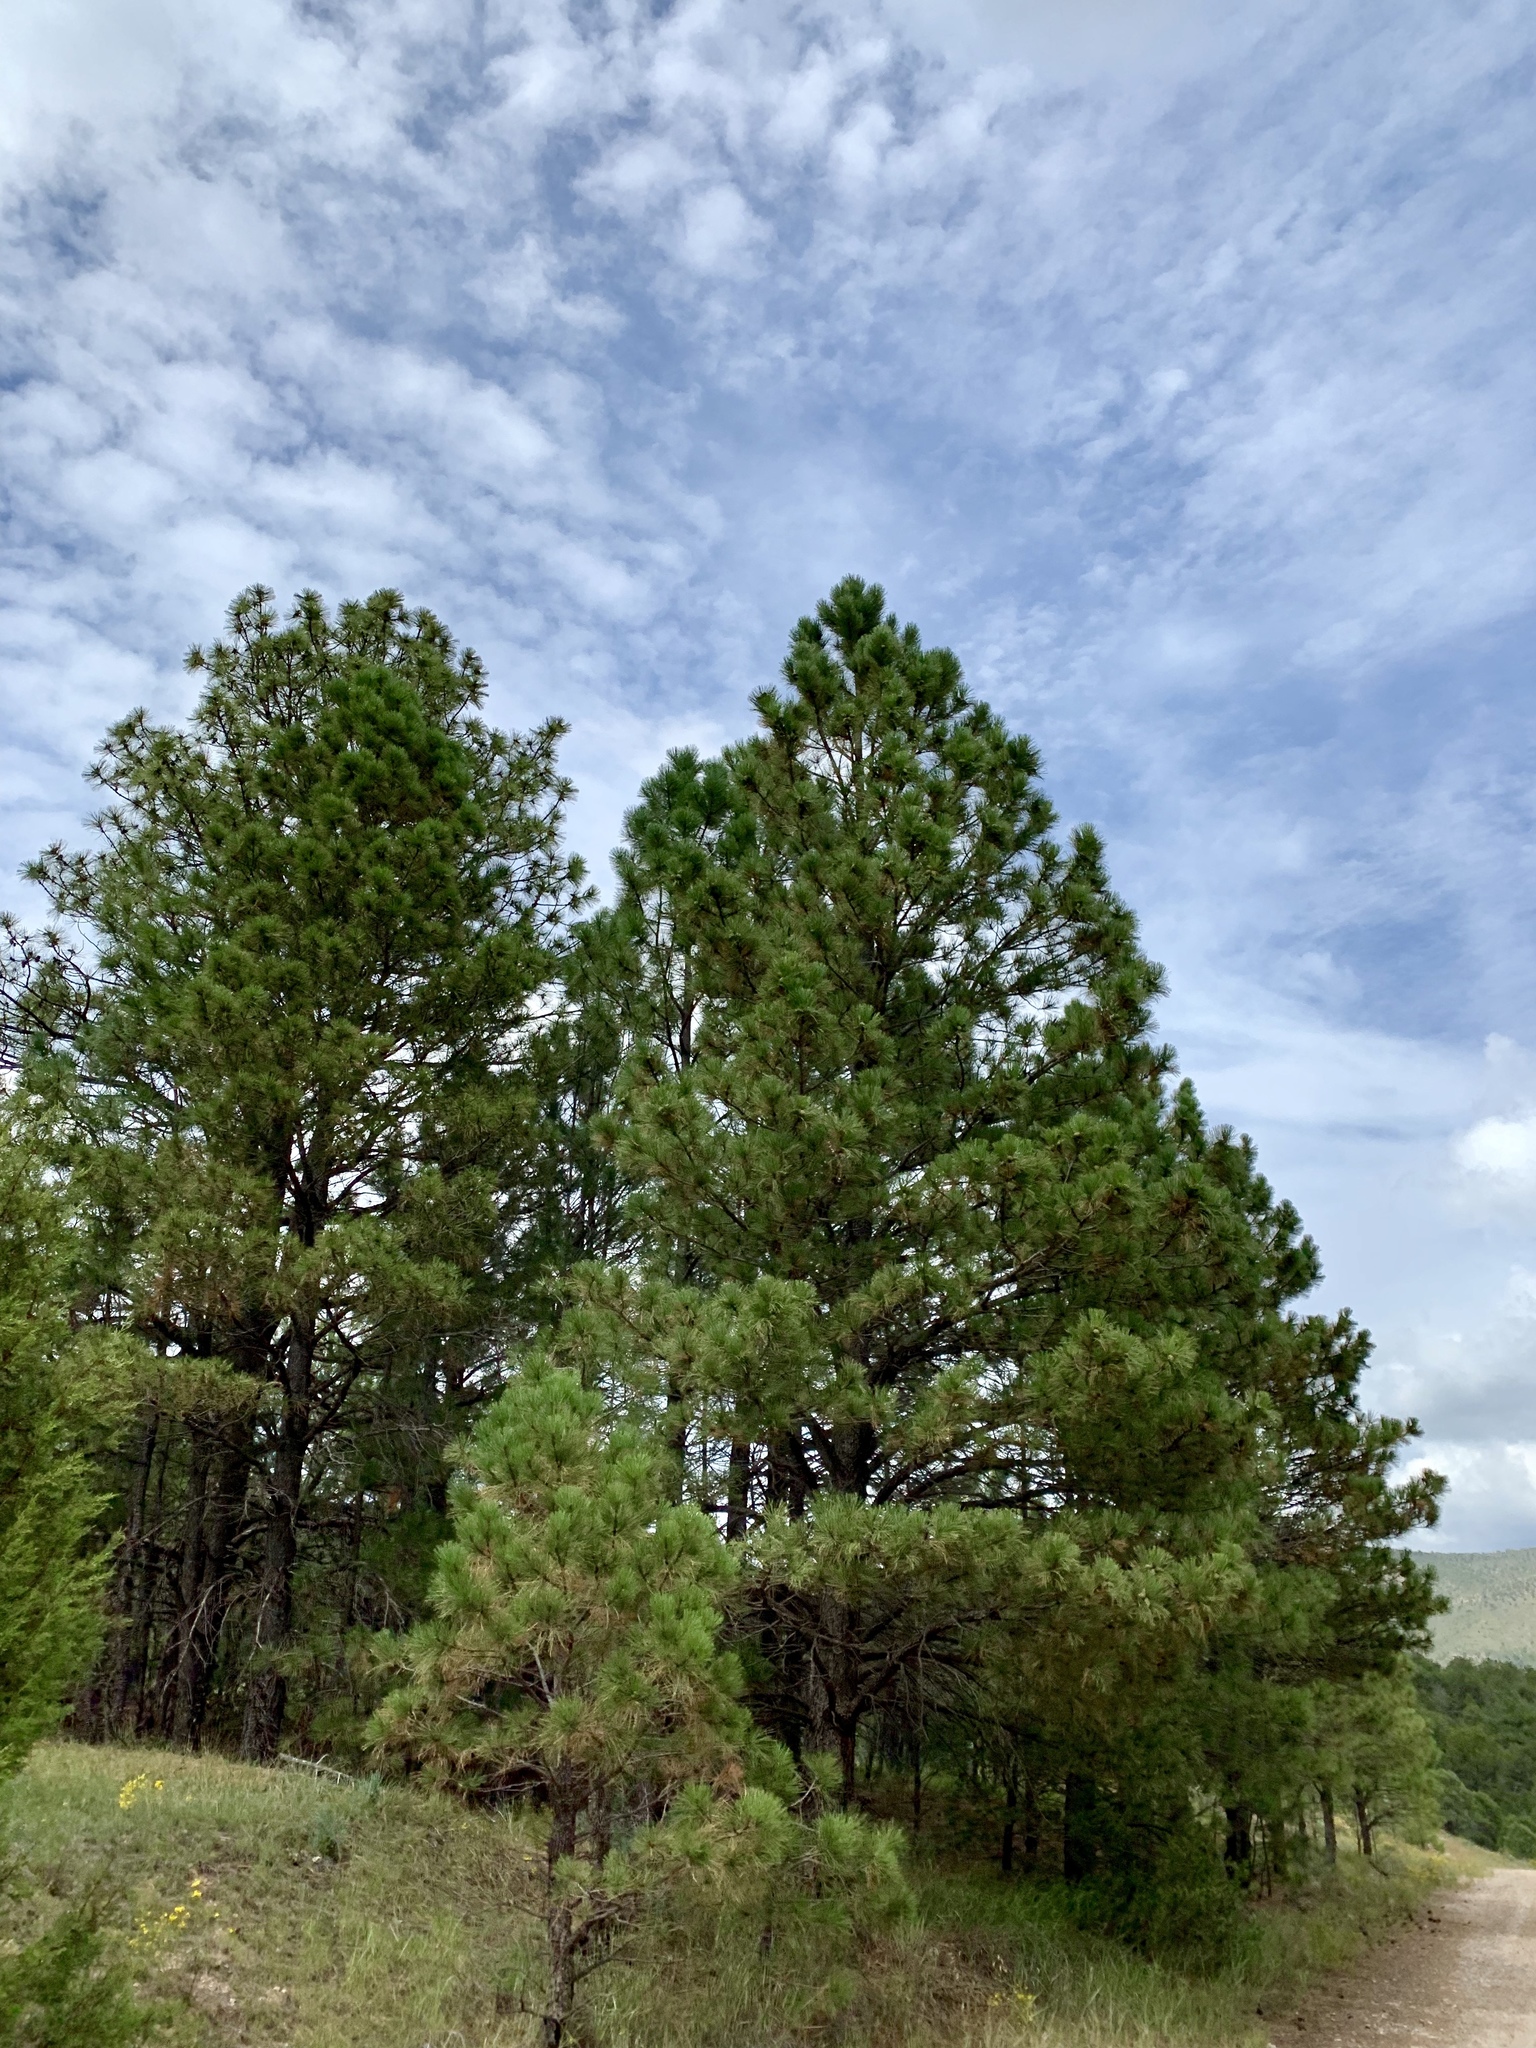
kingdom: Plantae
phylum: Tracheophyta
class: Pinopsida
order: Pinales
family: Pinaceae
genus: Pinus
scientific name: Pinus ponderosa
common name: Western yellow-pine
